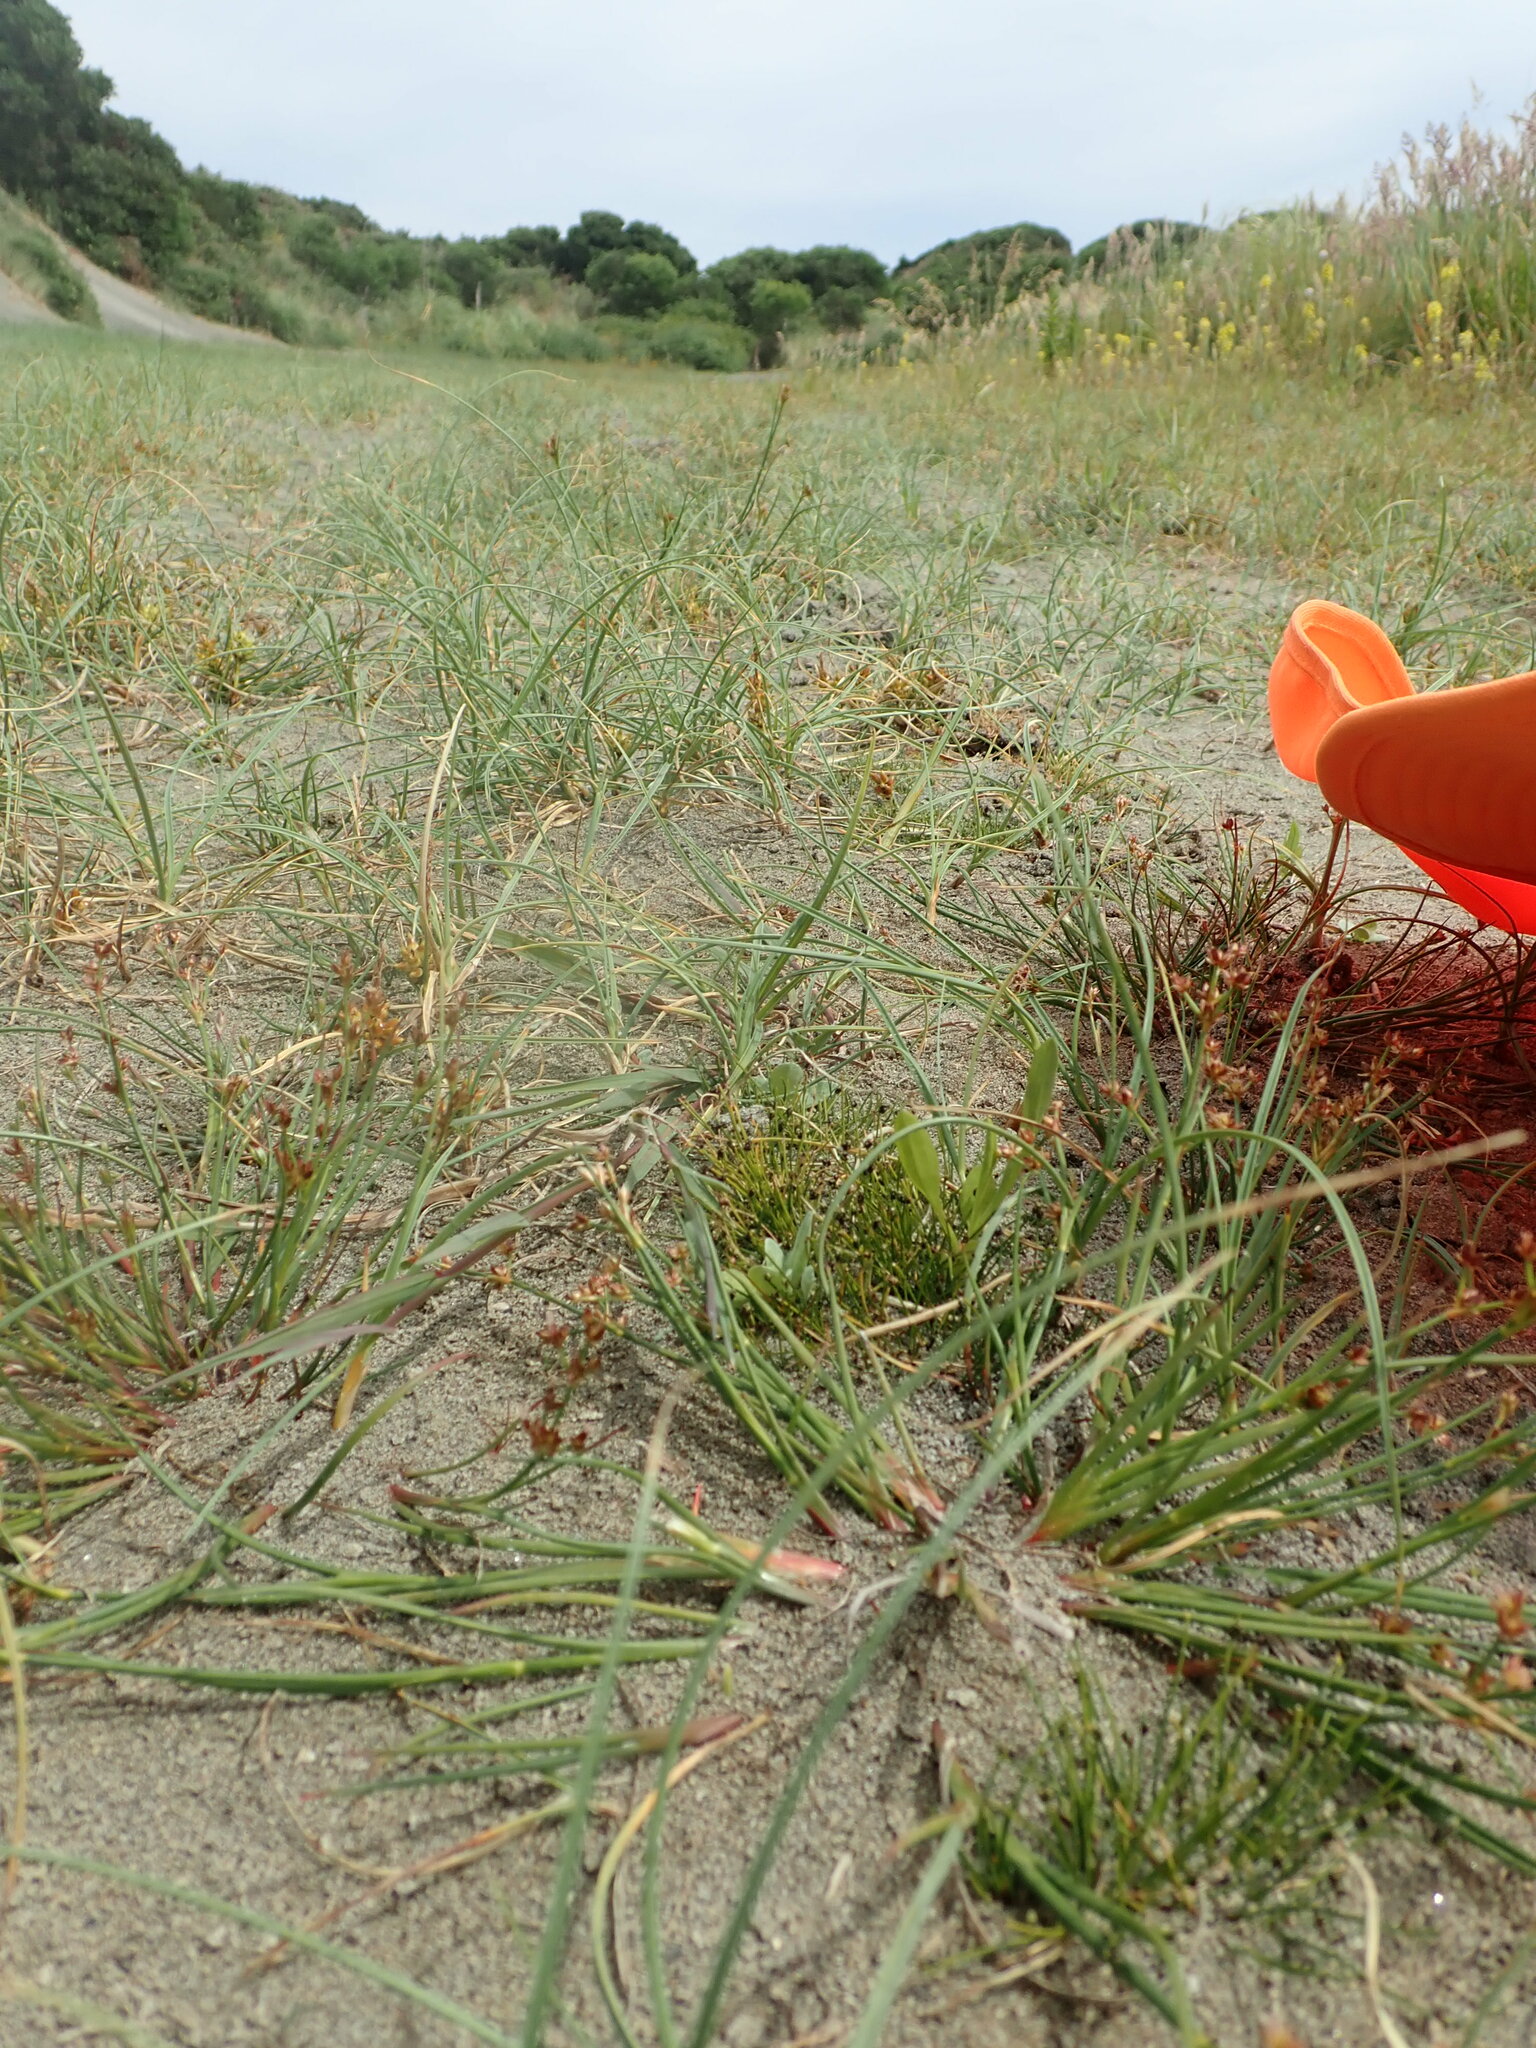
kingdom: Plantae
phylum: Tracheophyta
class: Liliopsida
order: Poales
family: Cyperaceae
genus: Isolepis
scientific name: Isolepis cernua
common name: Slender club-rush
